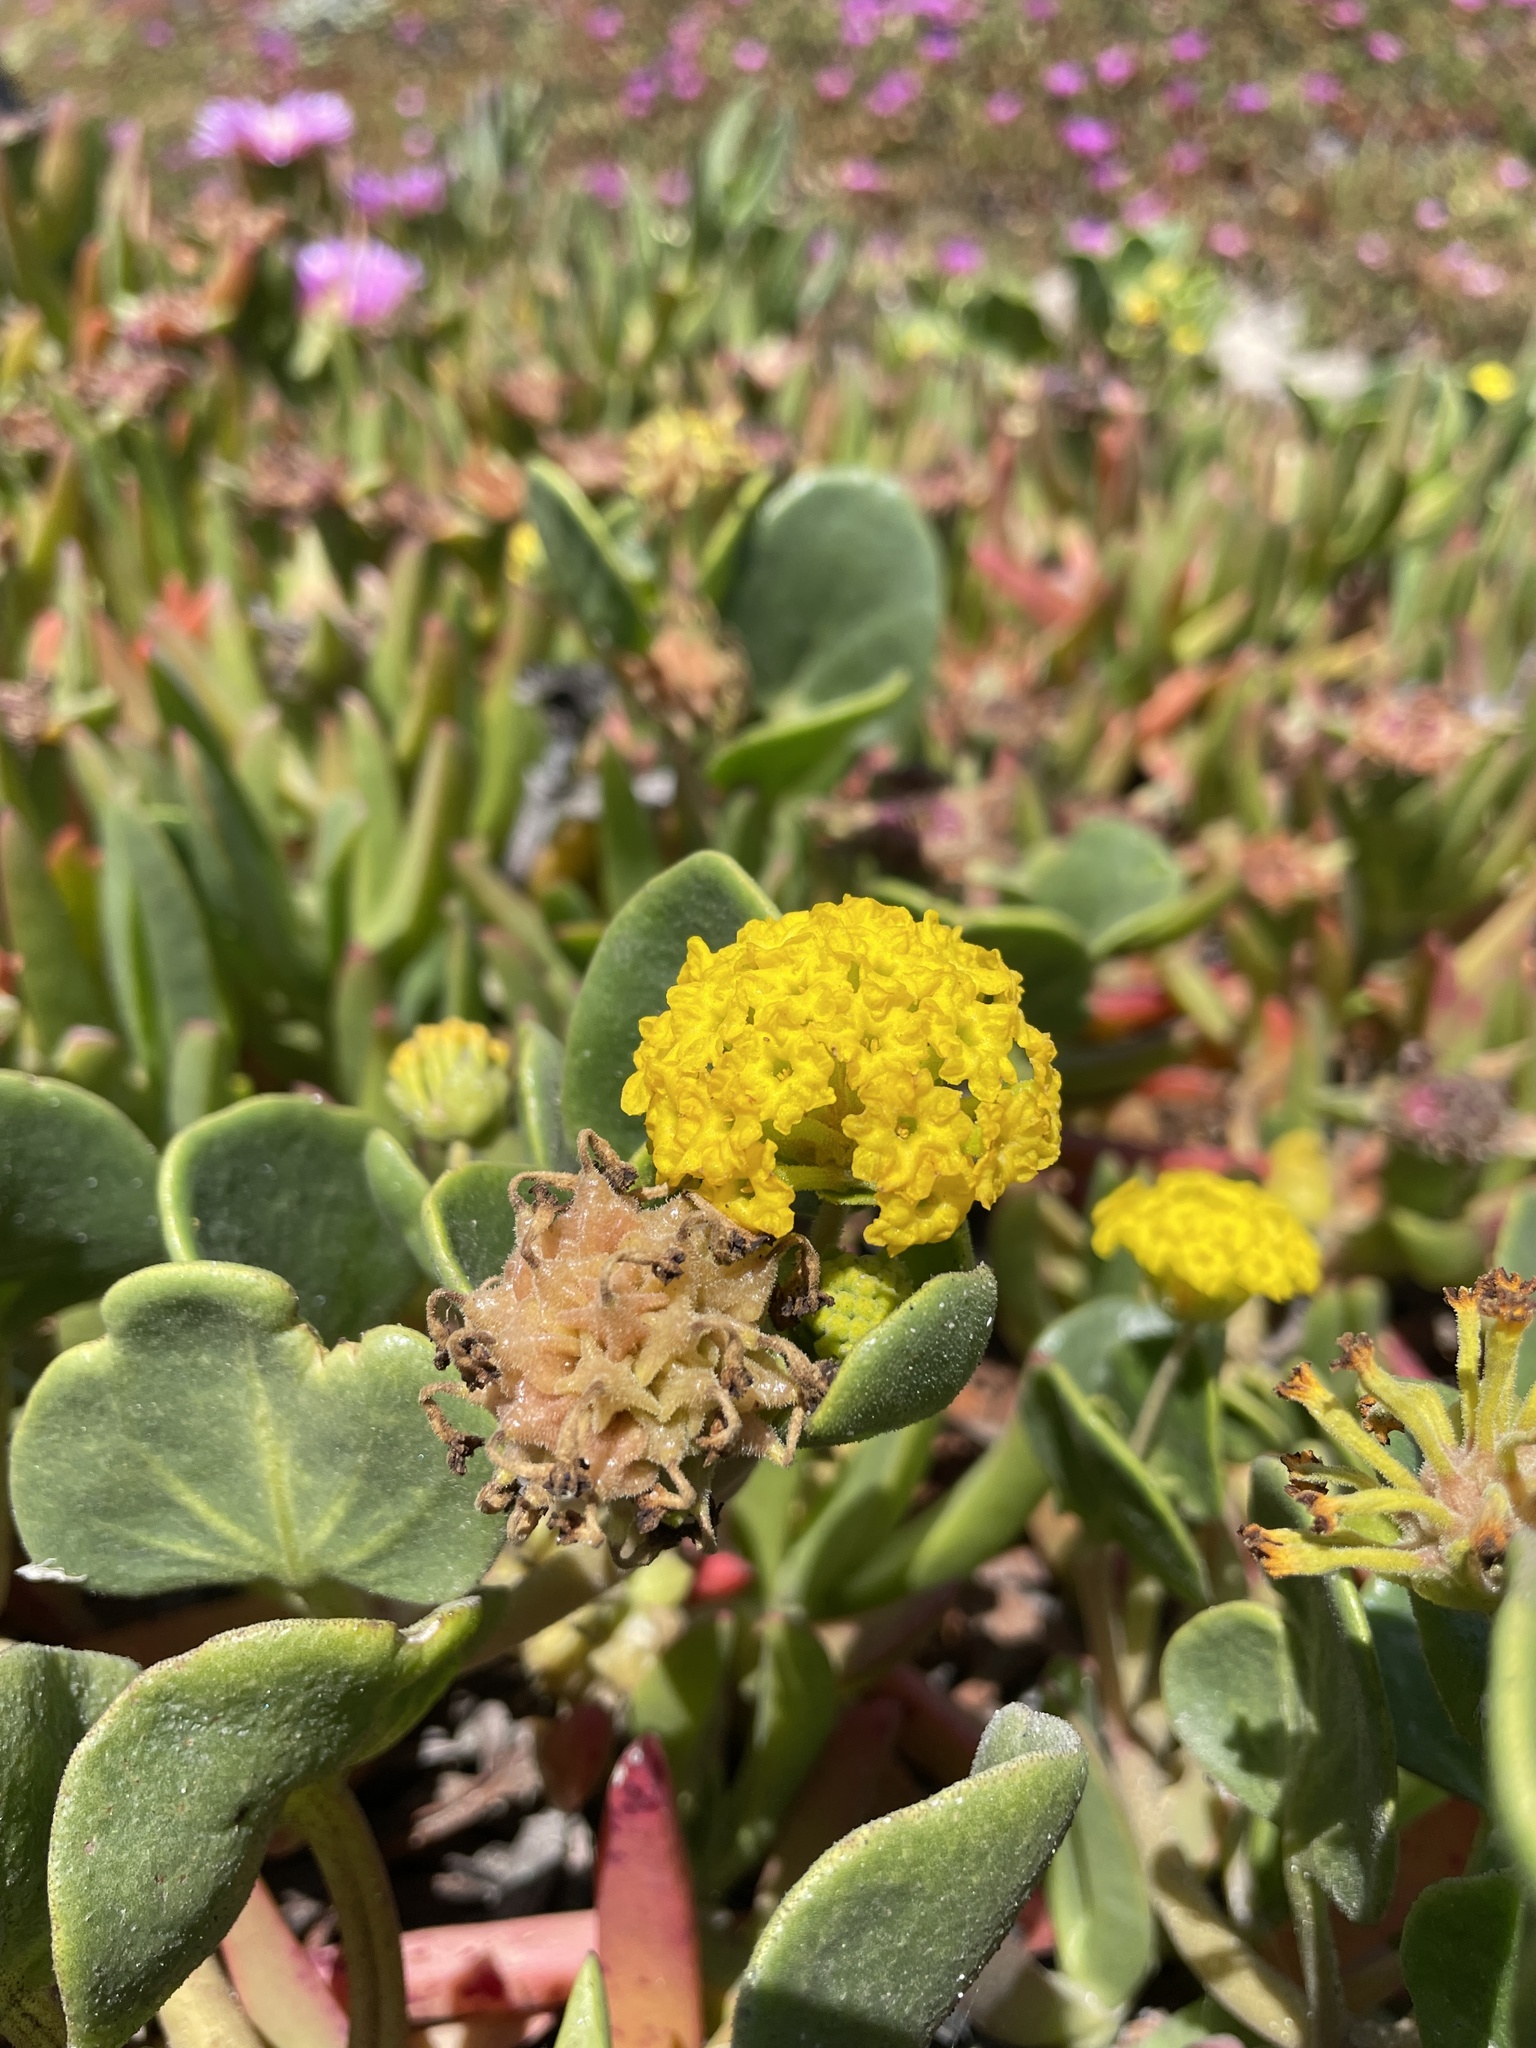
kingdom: Plantae
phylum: Tracheophyta
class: Magnoliopsida
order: Caryophyllales
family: Nyctaginaceae
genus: Abronia
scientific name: Abronia latifolia
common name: Yellow sand-verbena
